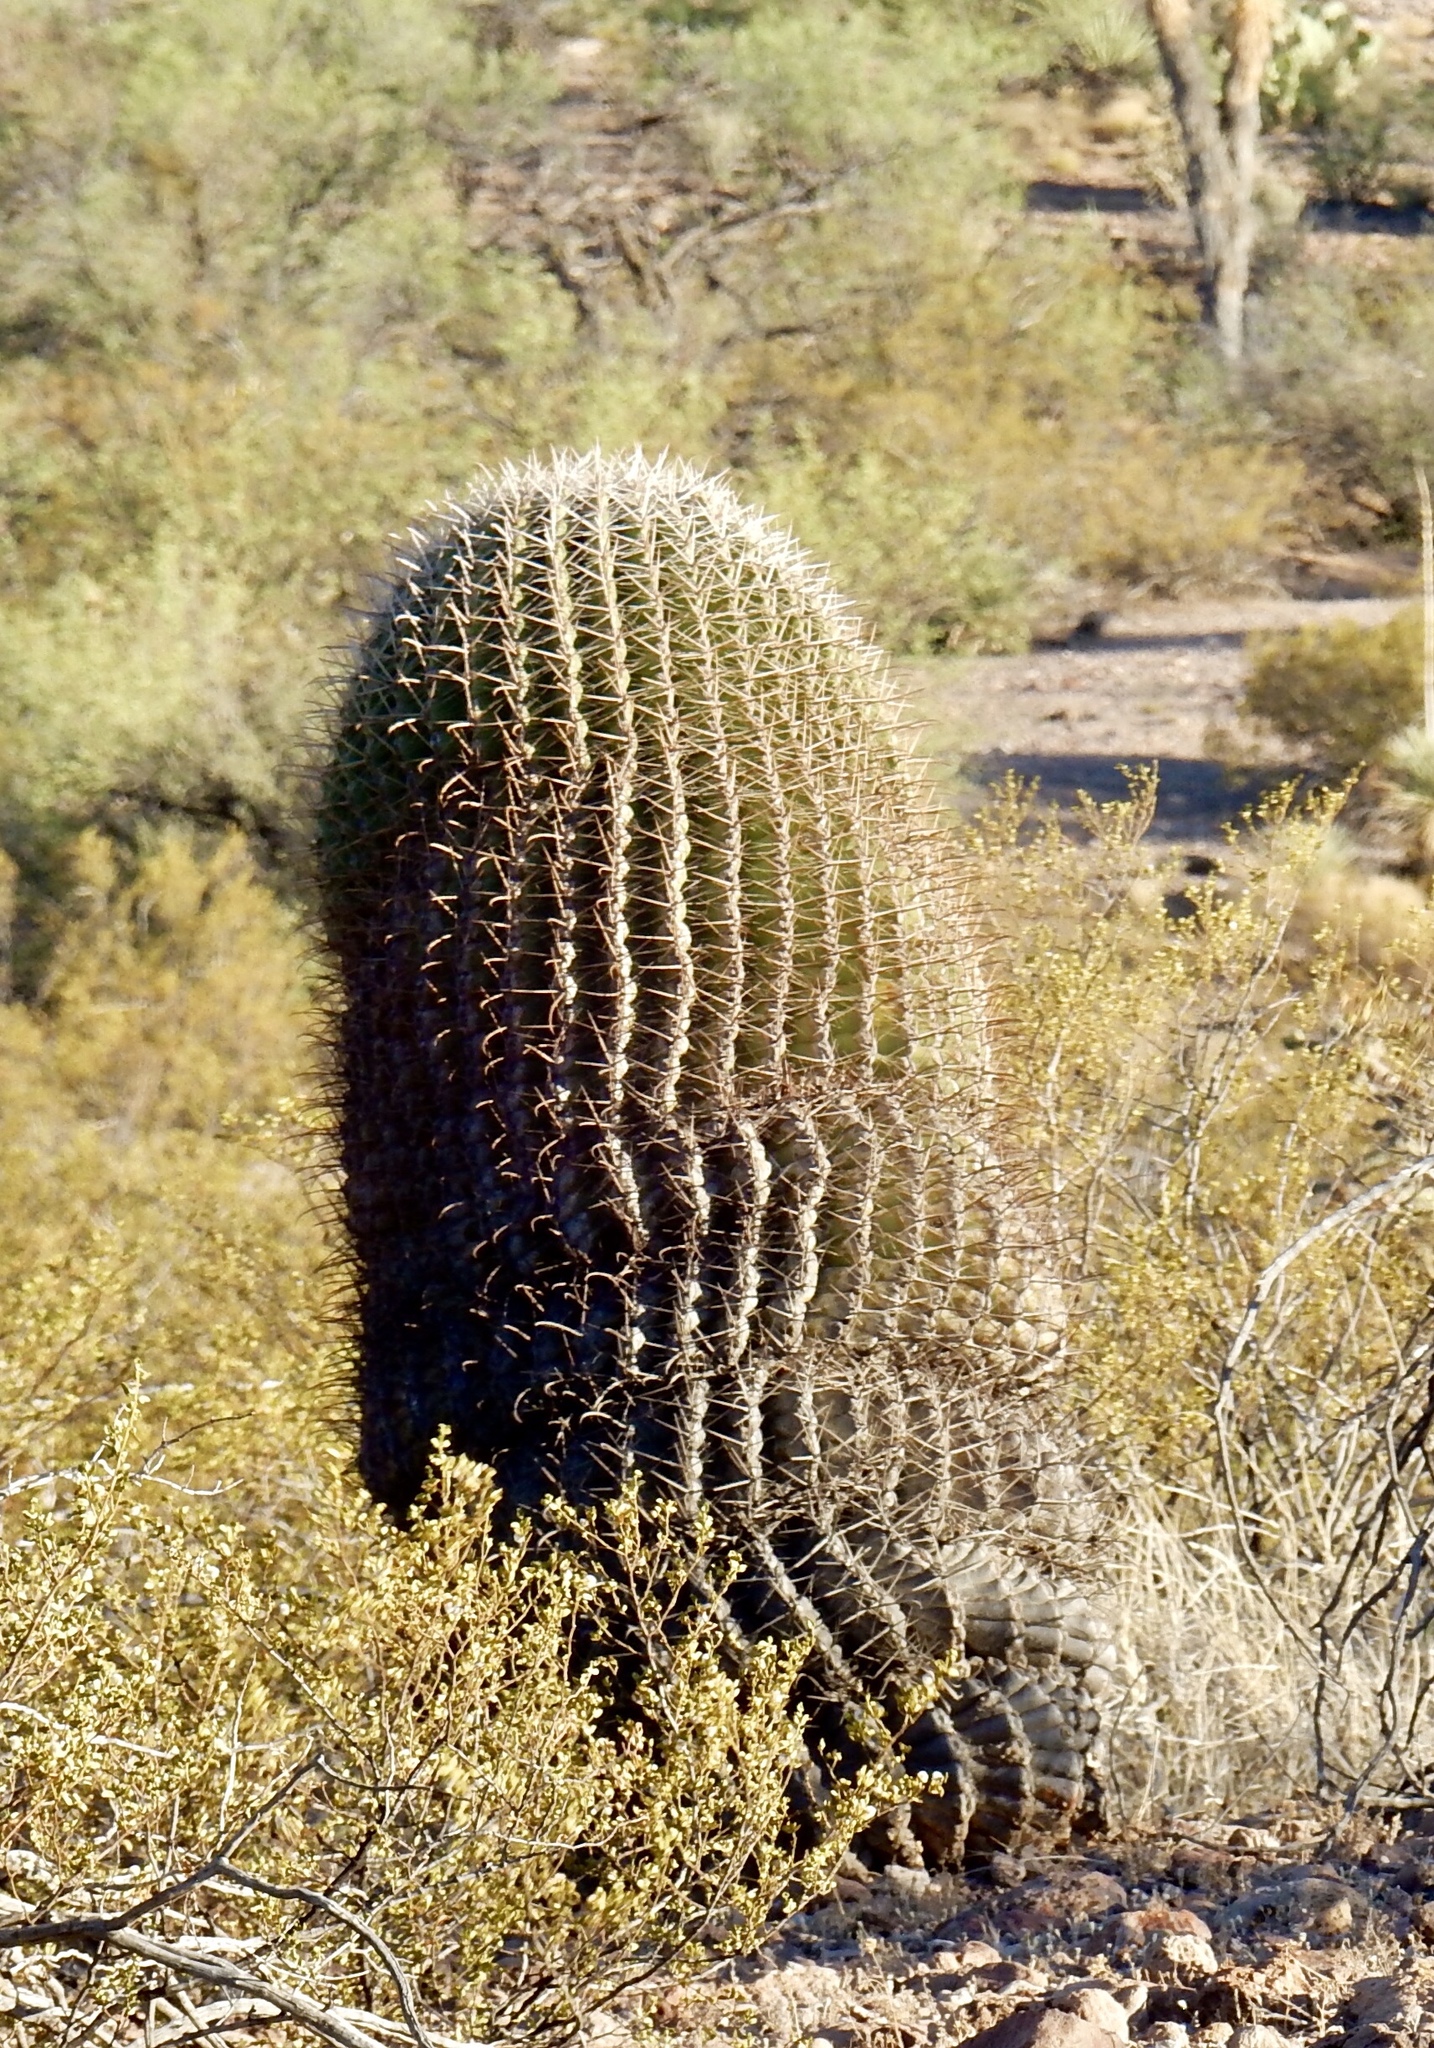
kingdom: Plantae
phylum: Tracheophyta
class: Magnoliopsida
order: Caryophyllales
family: Cactaceae
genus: Ferocactus
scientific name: Ferocactus wislizeni
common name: Candy barrel cactus
